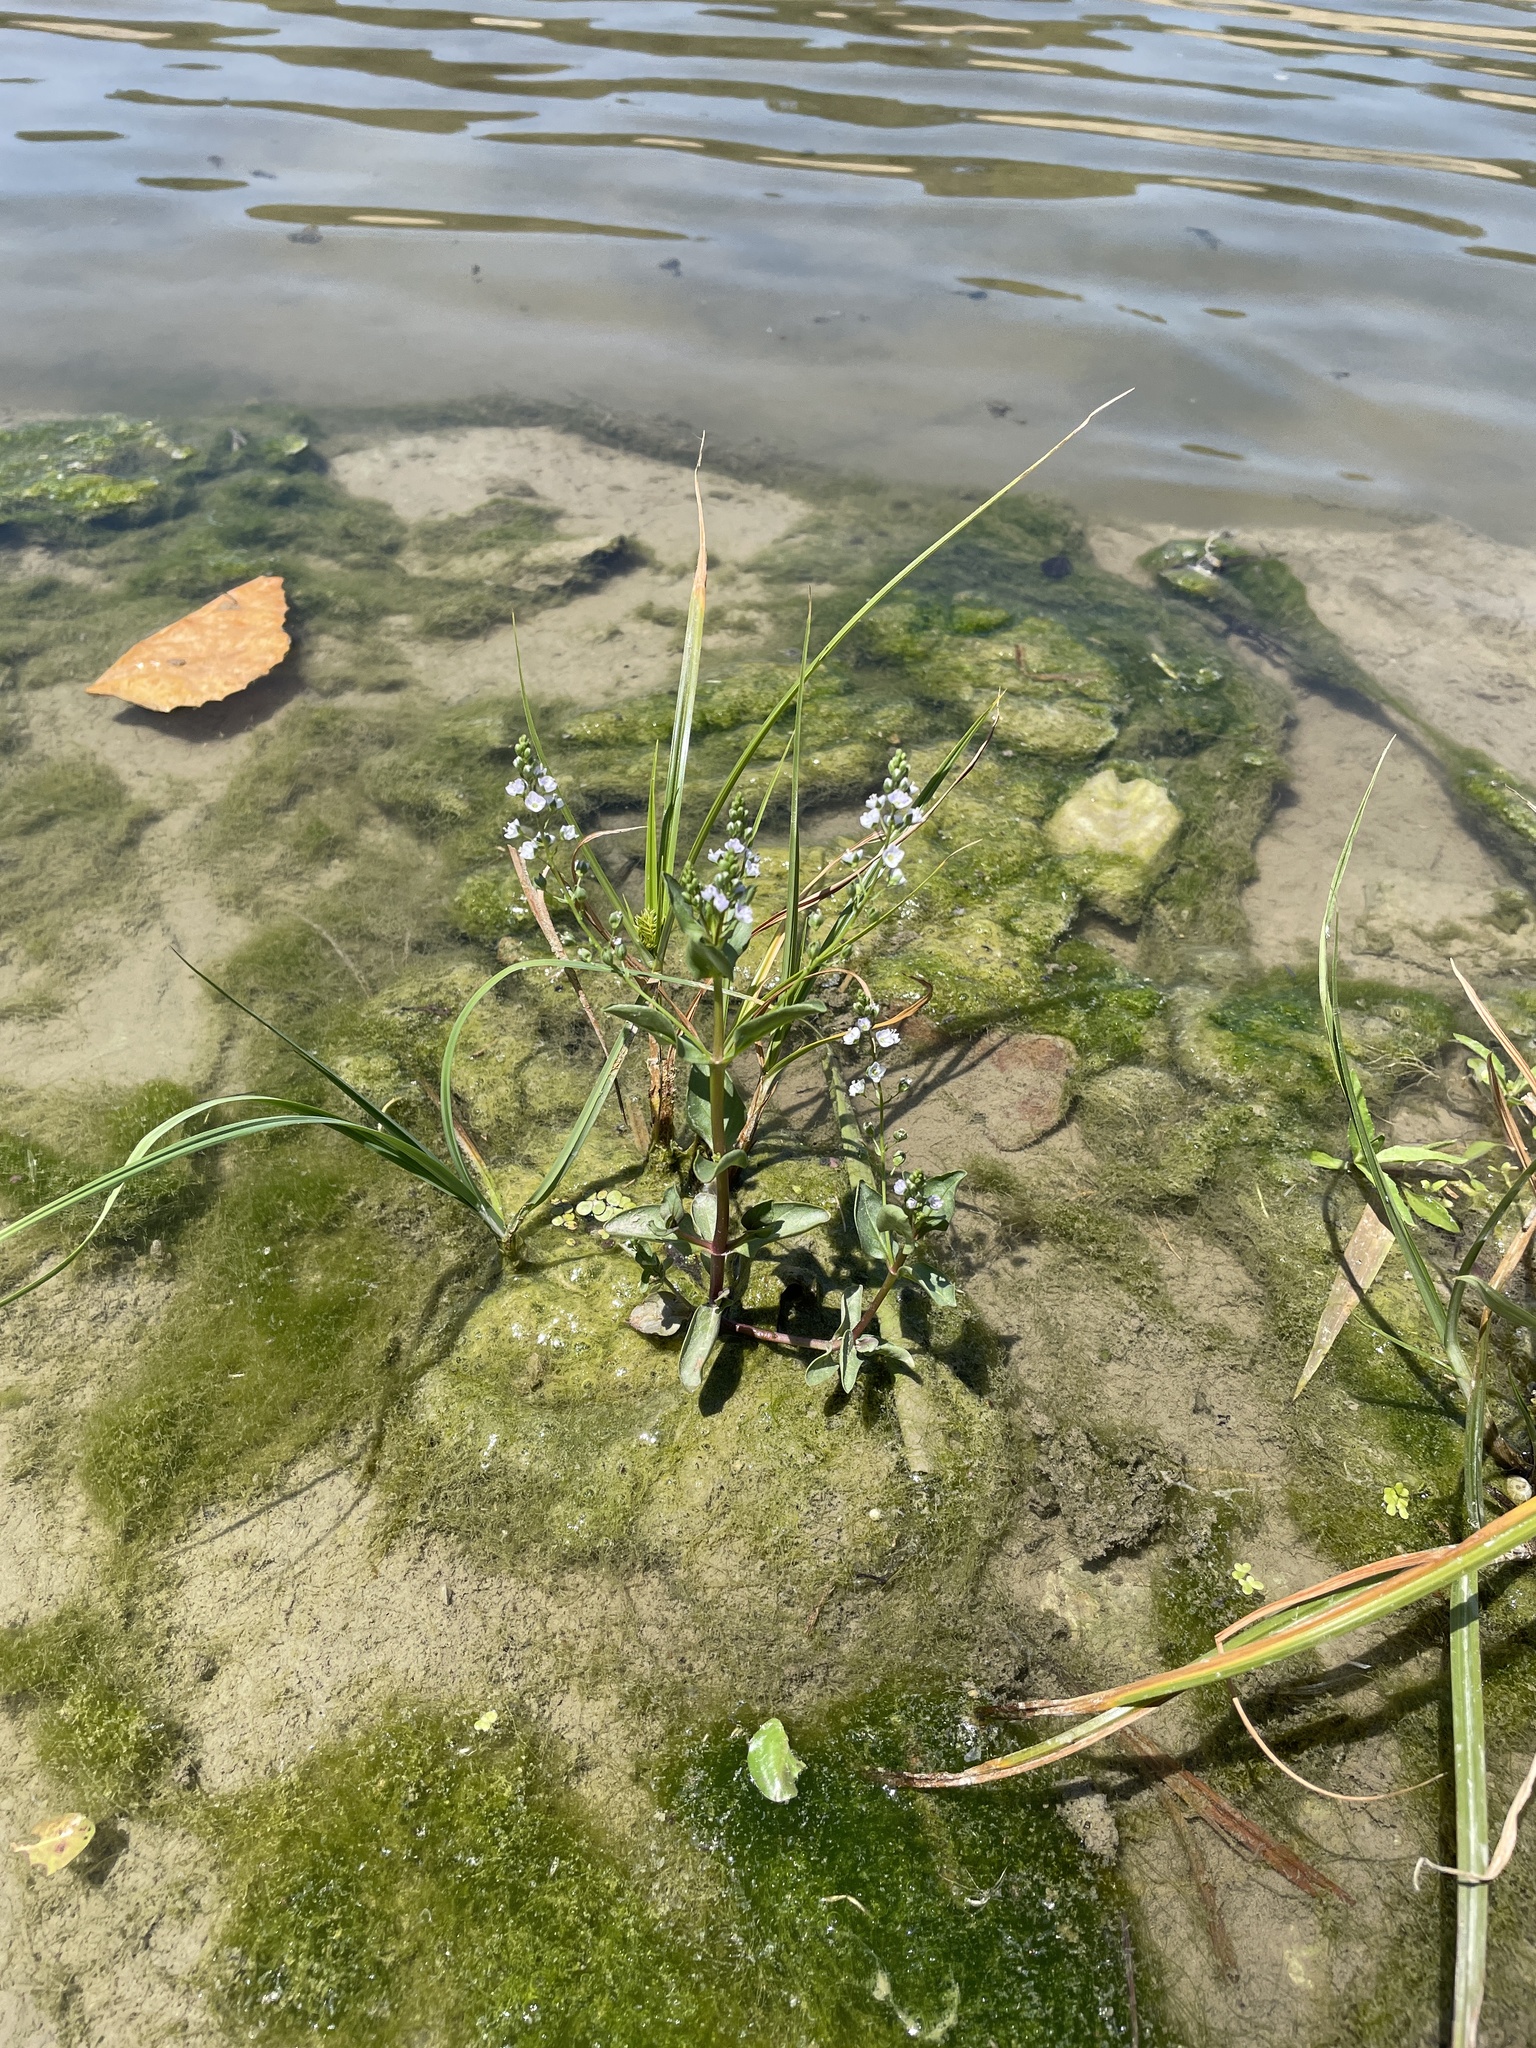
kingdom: Plantae
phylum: Tracheophyta
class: Magnoliopsida
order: Lamiales
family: Plantaginaceae
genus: Veronica
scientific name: Veronica anagallis-aquatica
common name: Water speedwell
